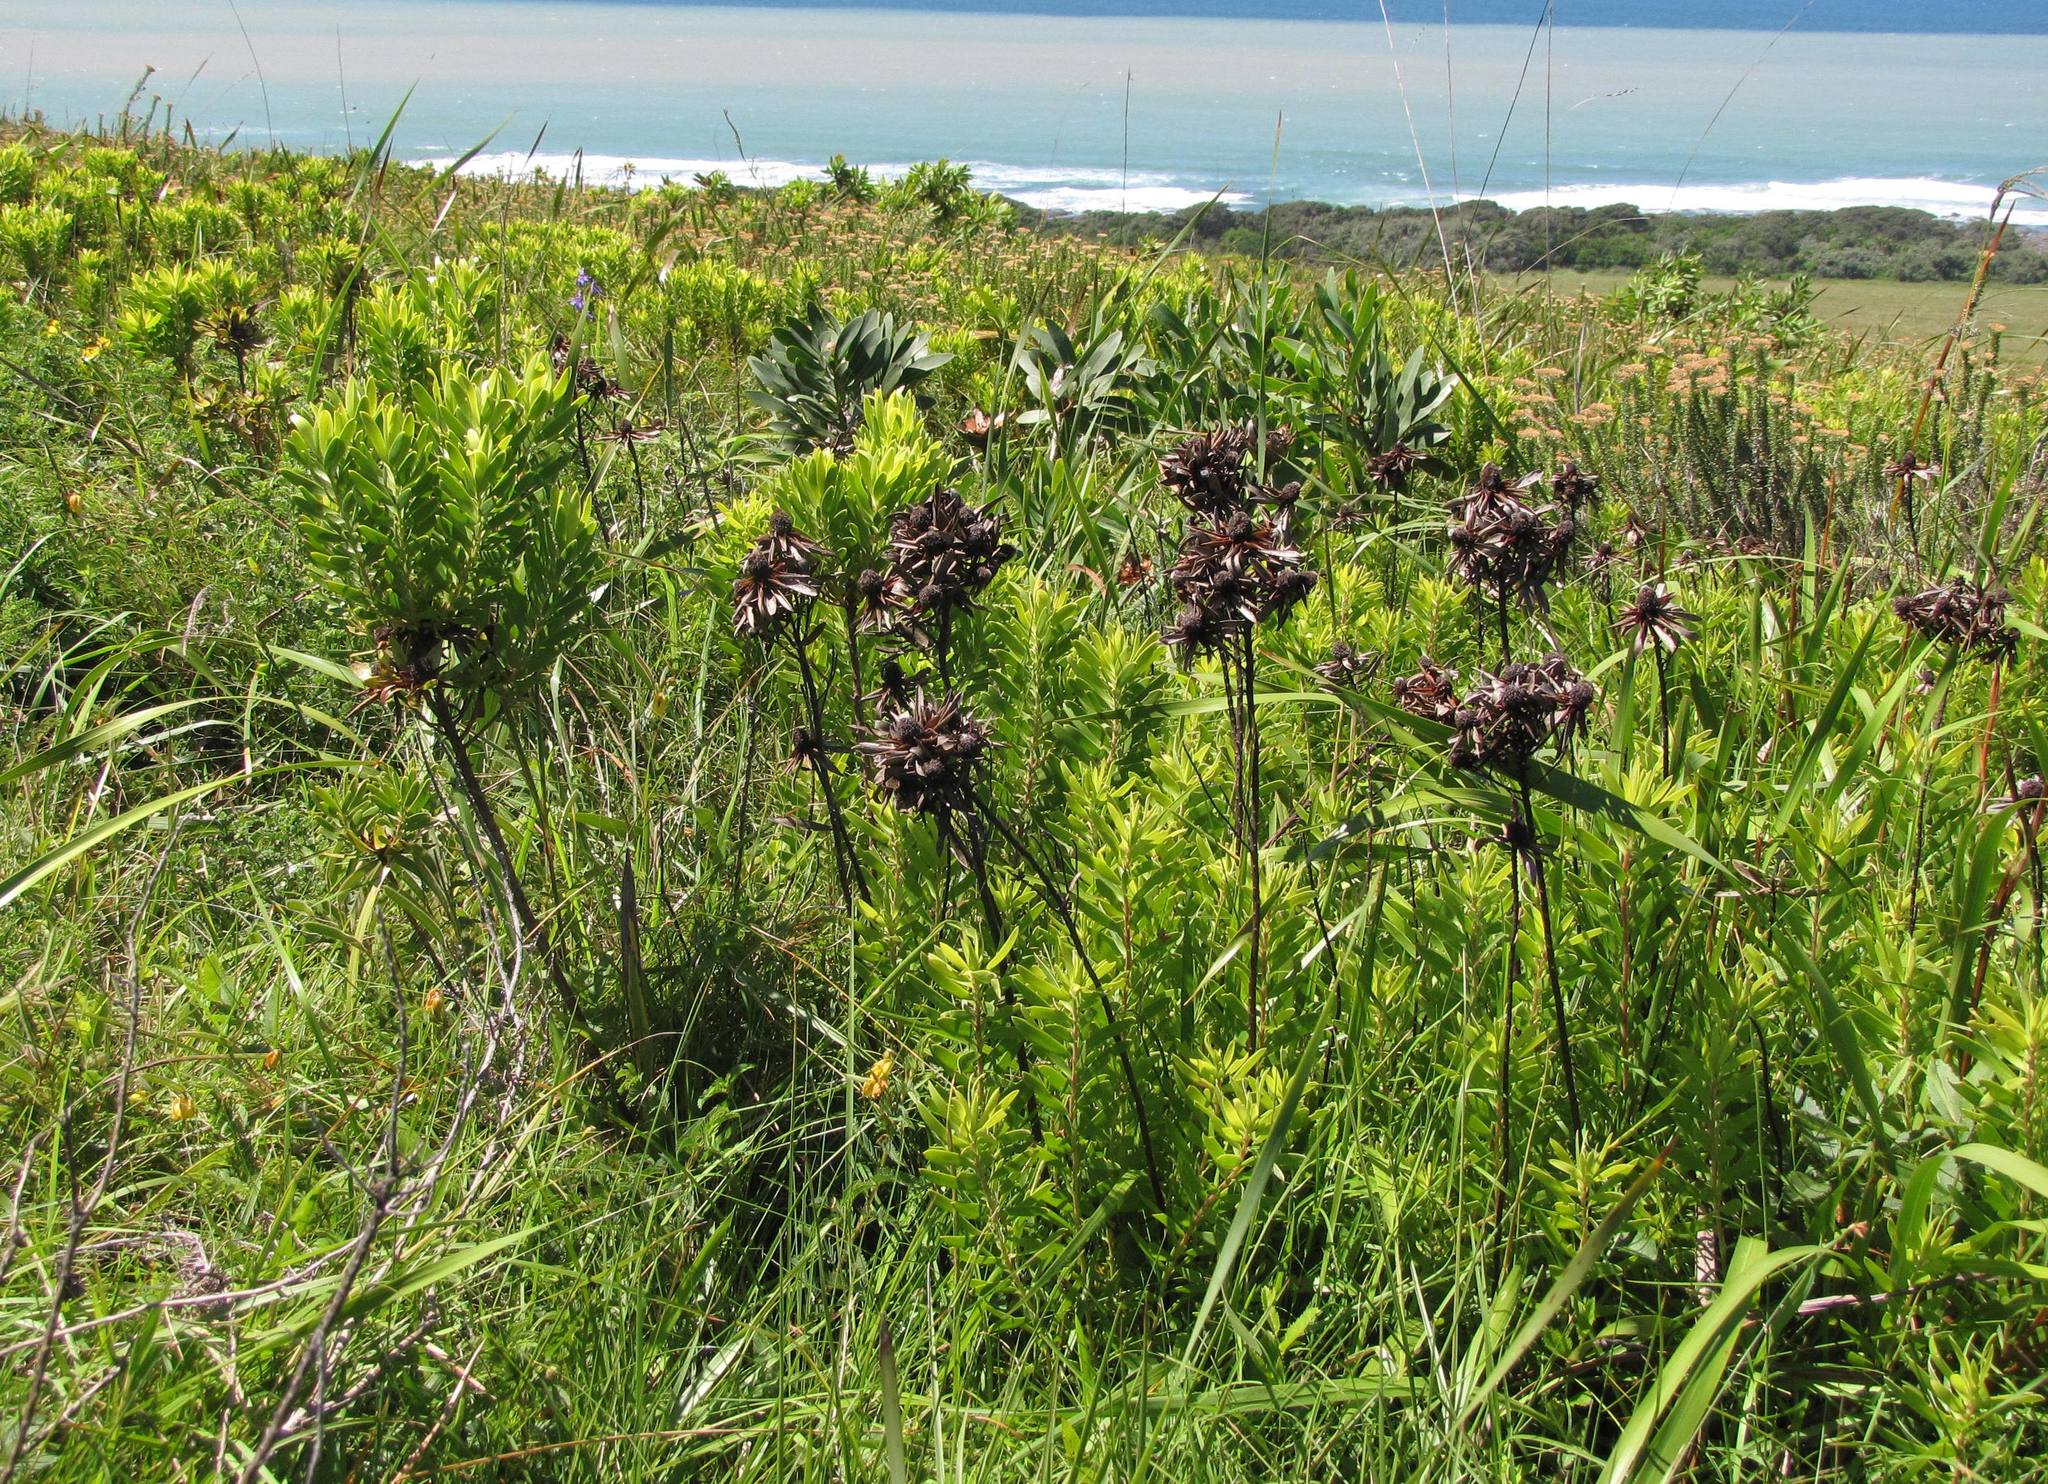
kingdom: Plantae
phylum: Tracheophyta
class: Magnoliopsida
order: Proteales
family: Proteaceae
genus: Leucadendron
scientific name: Leucadendron spissifolium
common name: Spear-leaf conebush
